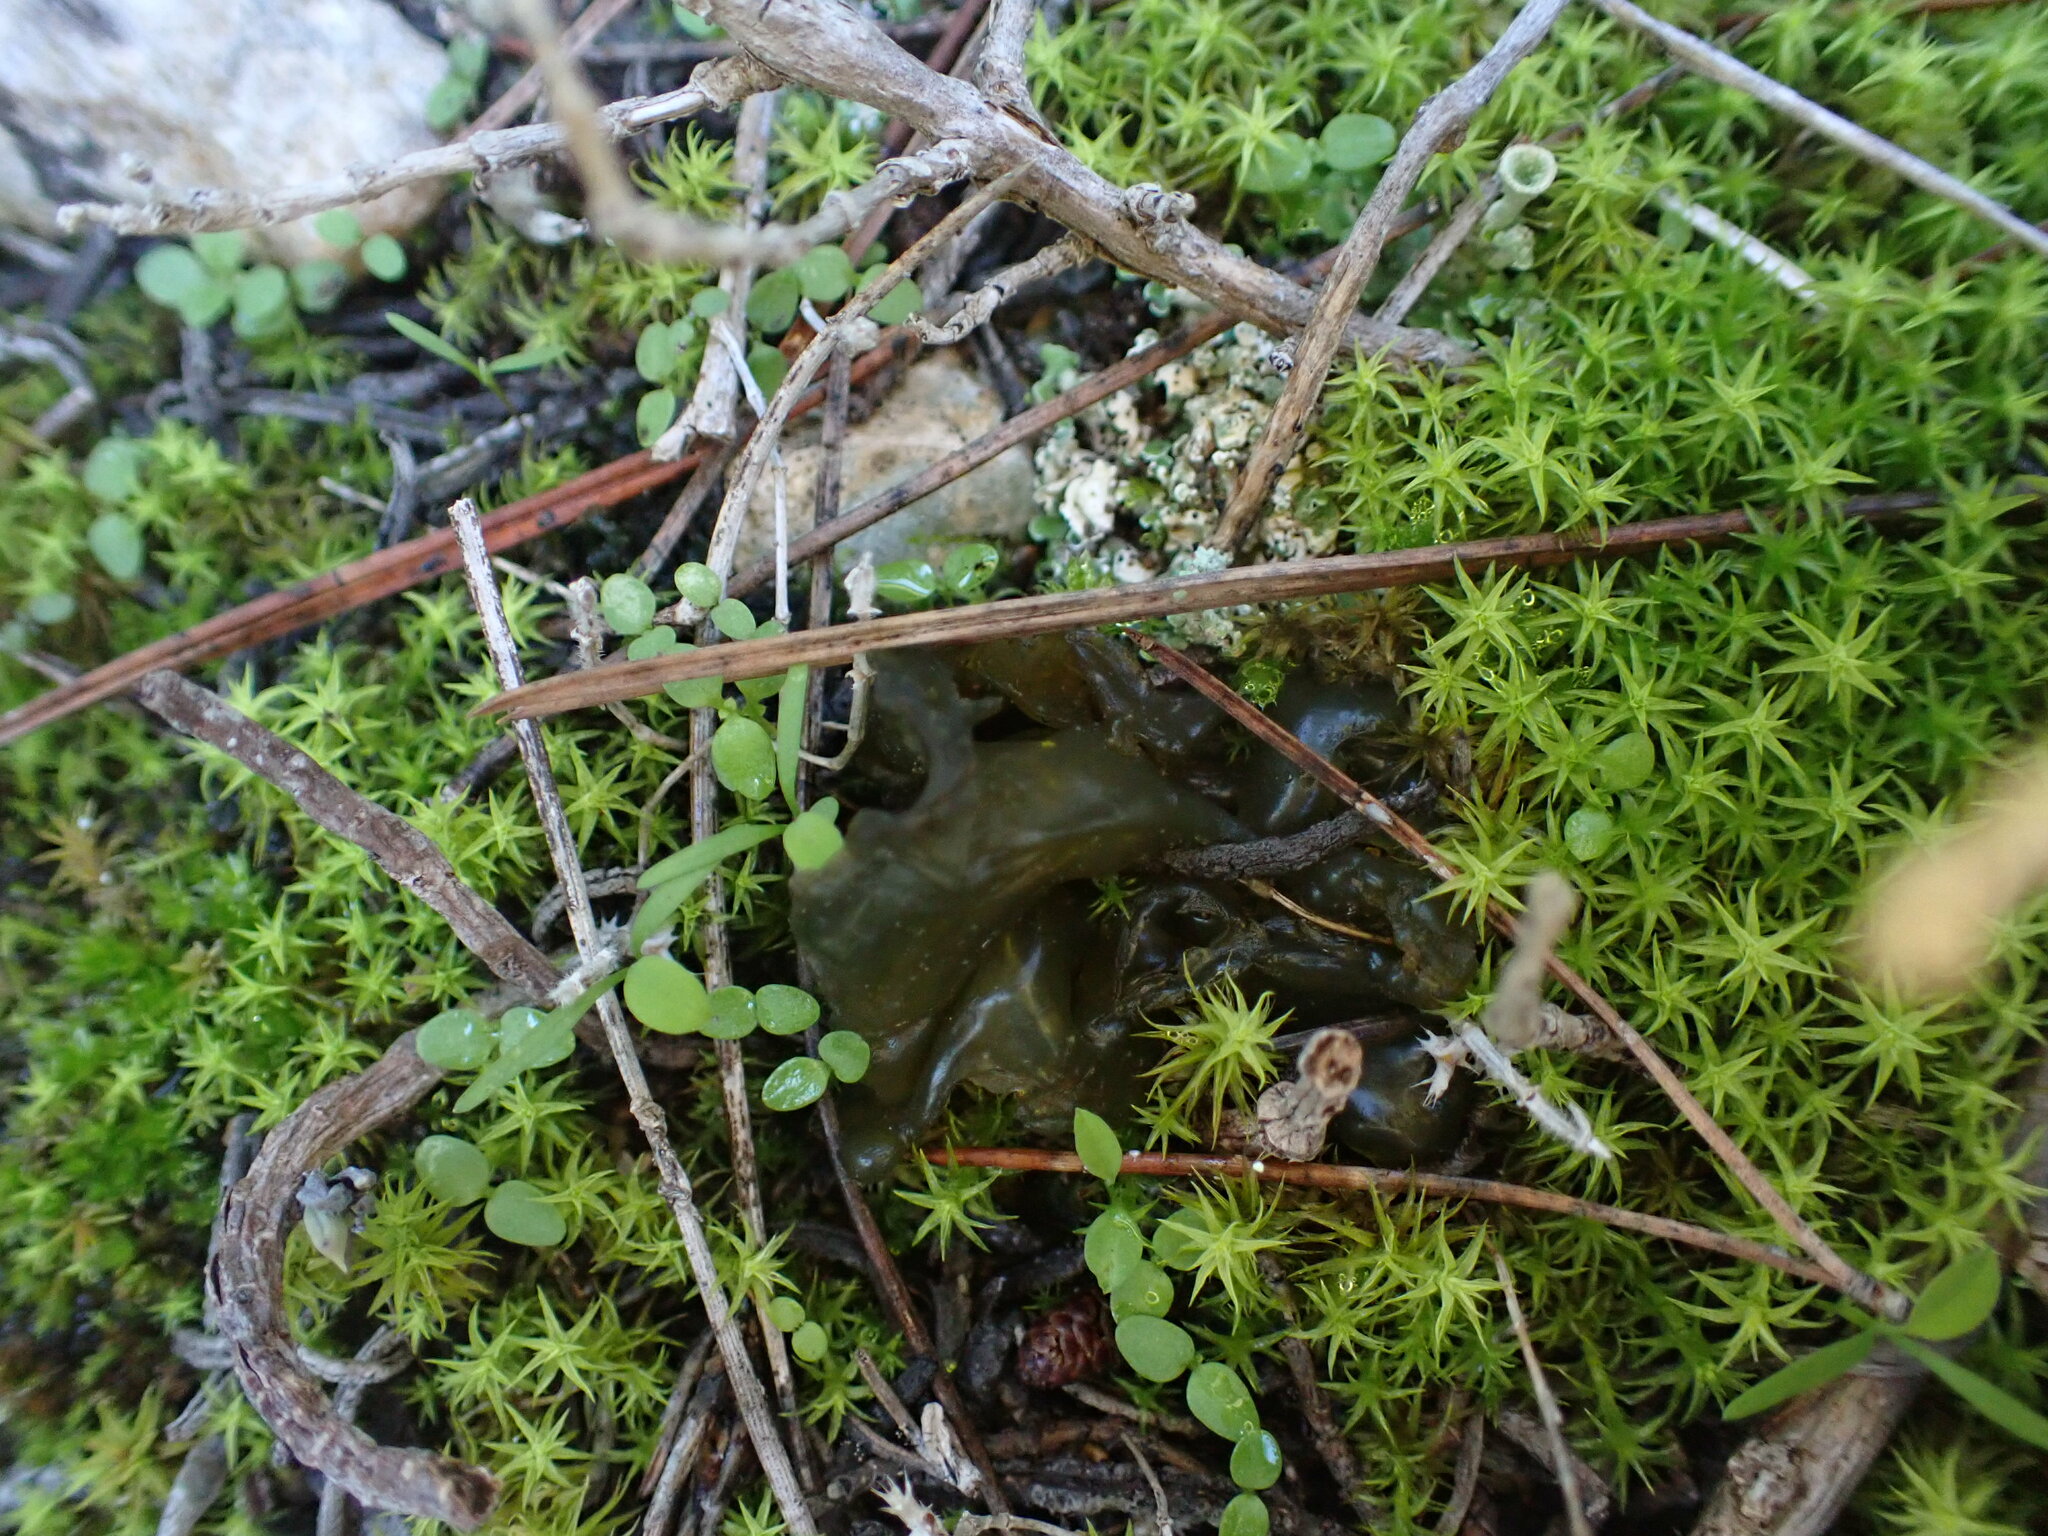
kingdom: Bacteria
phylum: Cyanobacteria
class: Cyanobacteriia
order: Cyanobacteriales
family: Nostocaceae
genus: Nostoc
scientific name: Nostoc commune
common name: Star jelly
